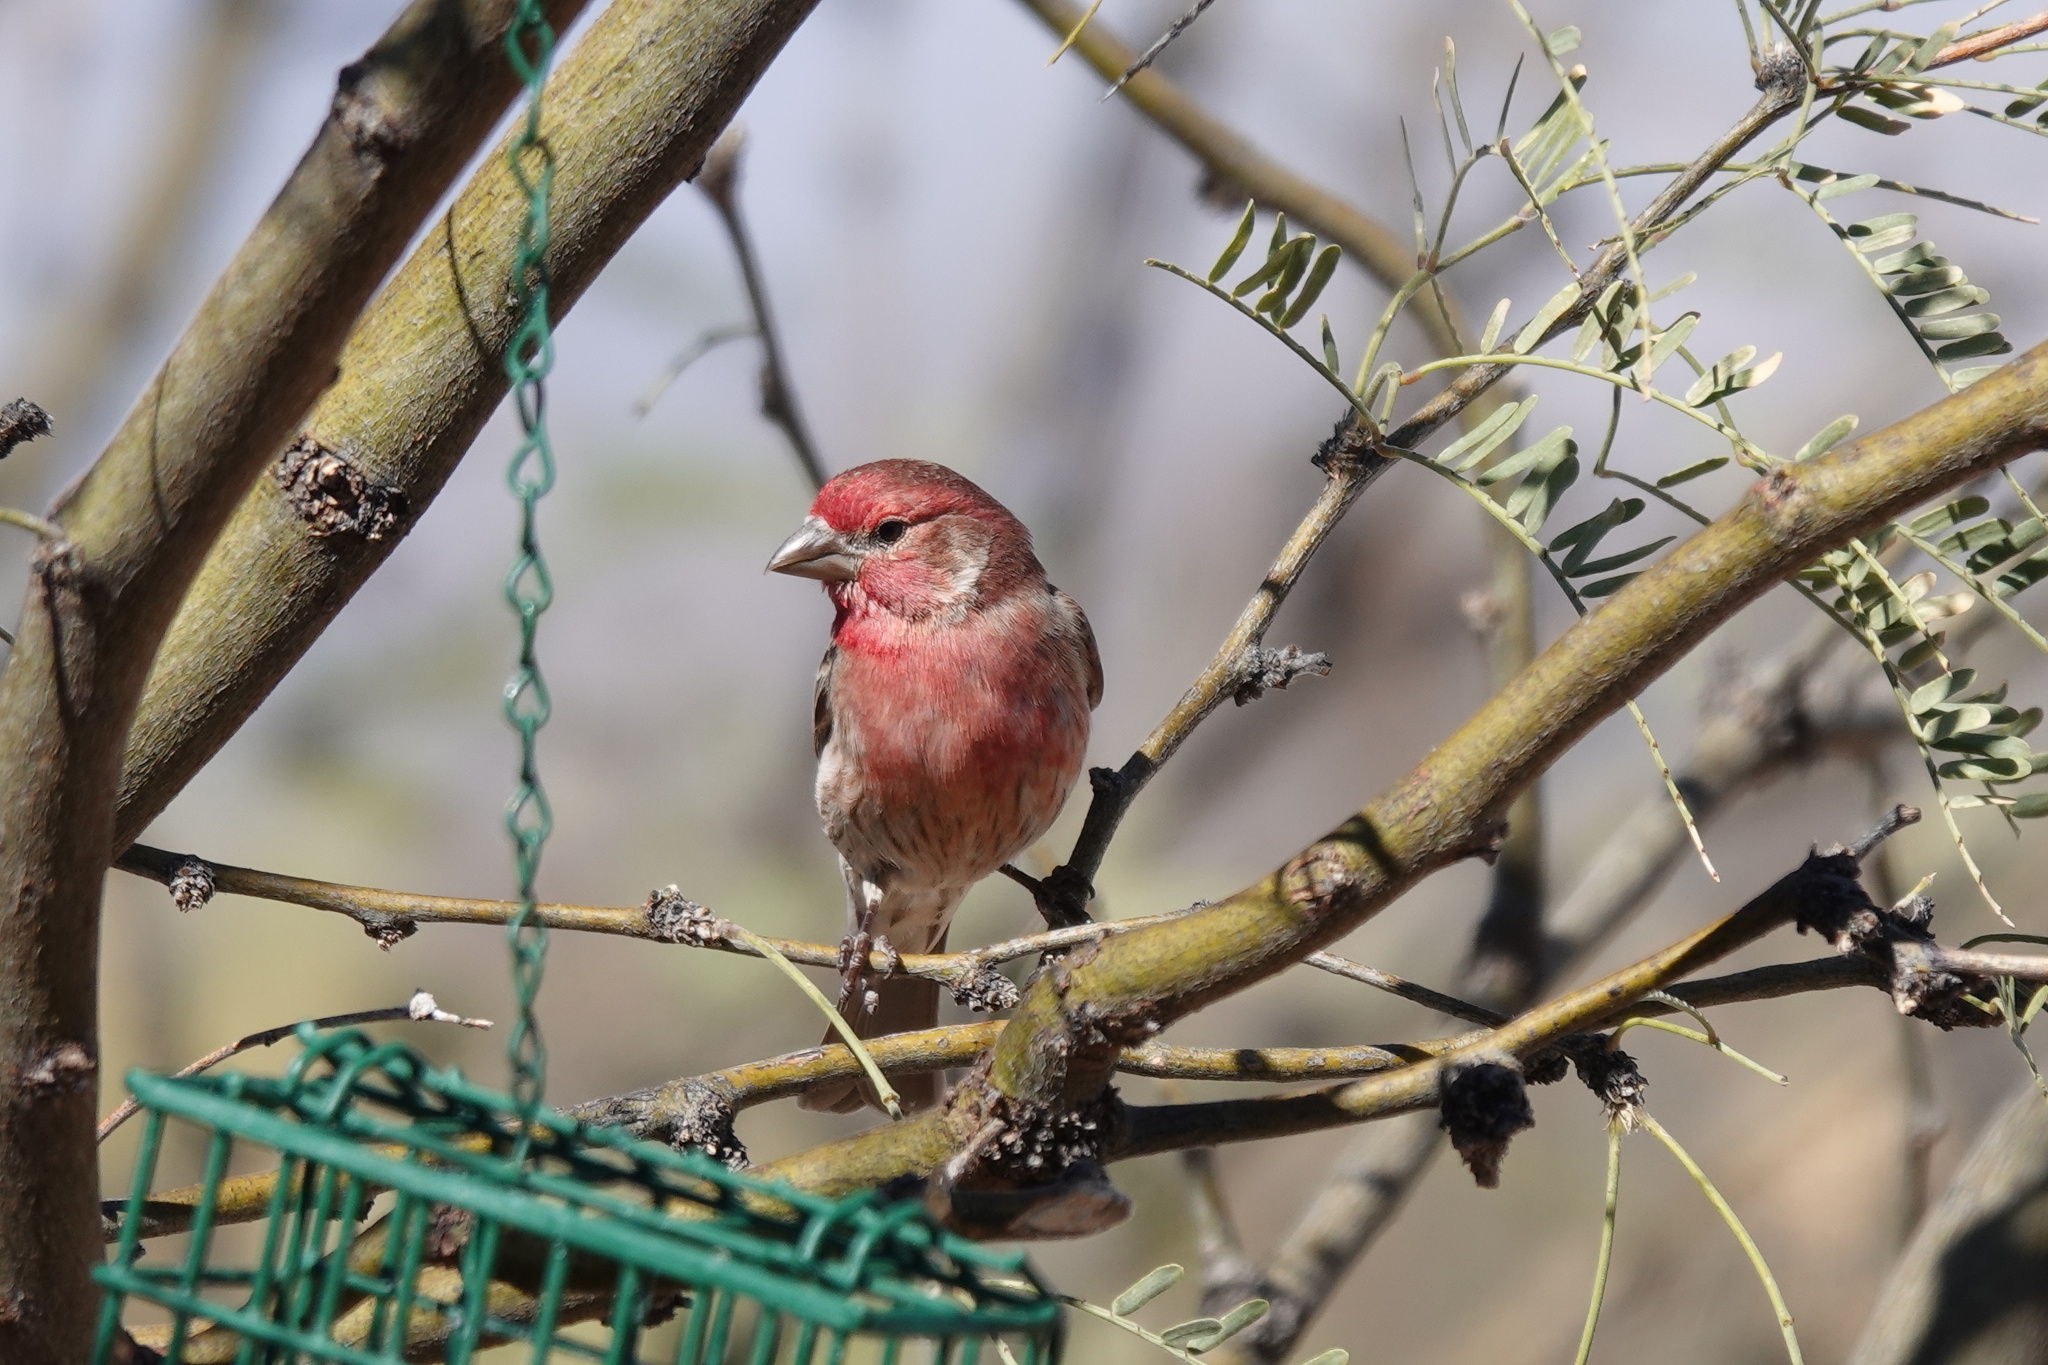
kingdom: Animalia
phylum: Chordata
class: Aves
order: Passeriformes
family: Fringillidae
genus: Haemorhous
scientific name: Haemorhous mexicanus
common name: House finch
